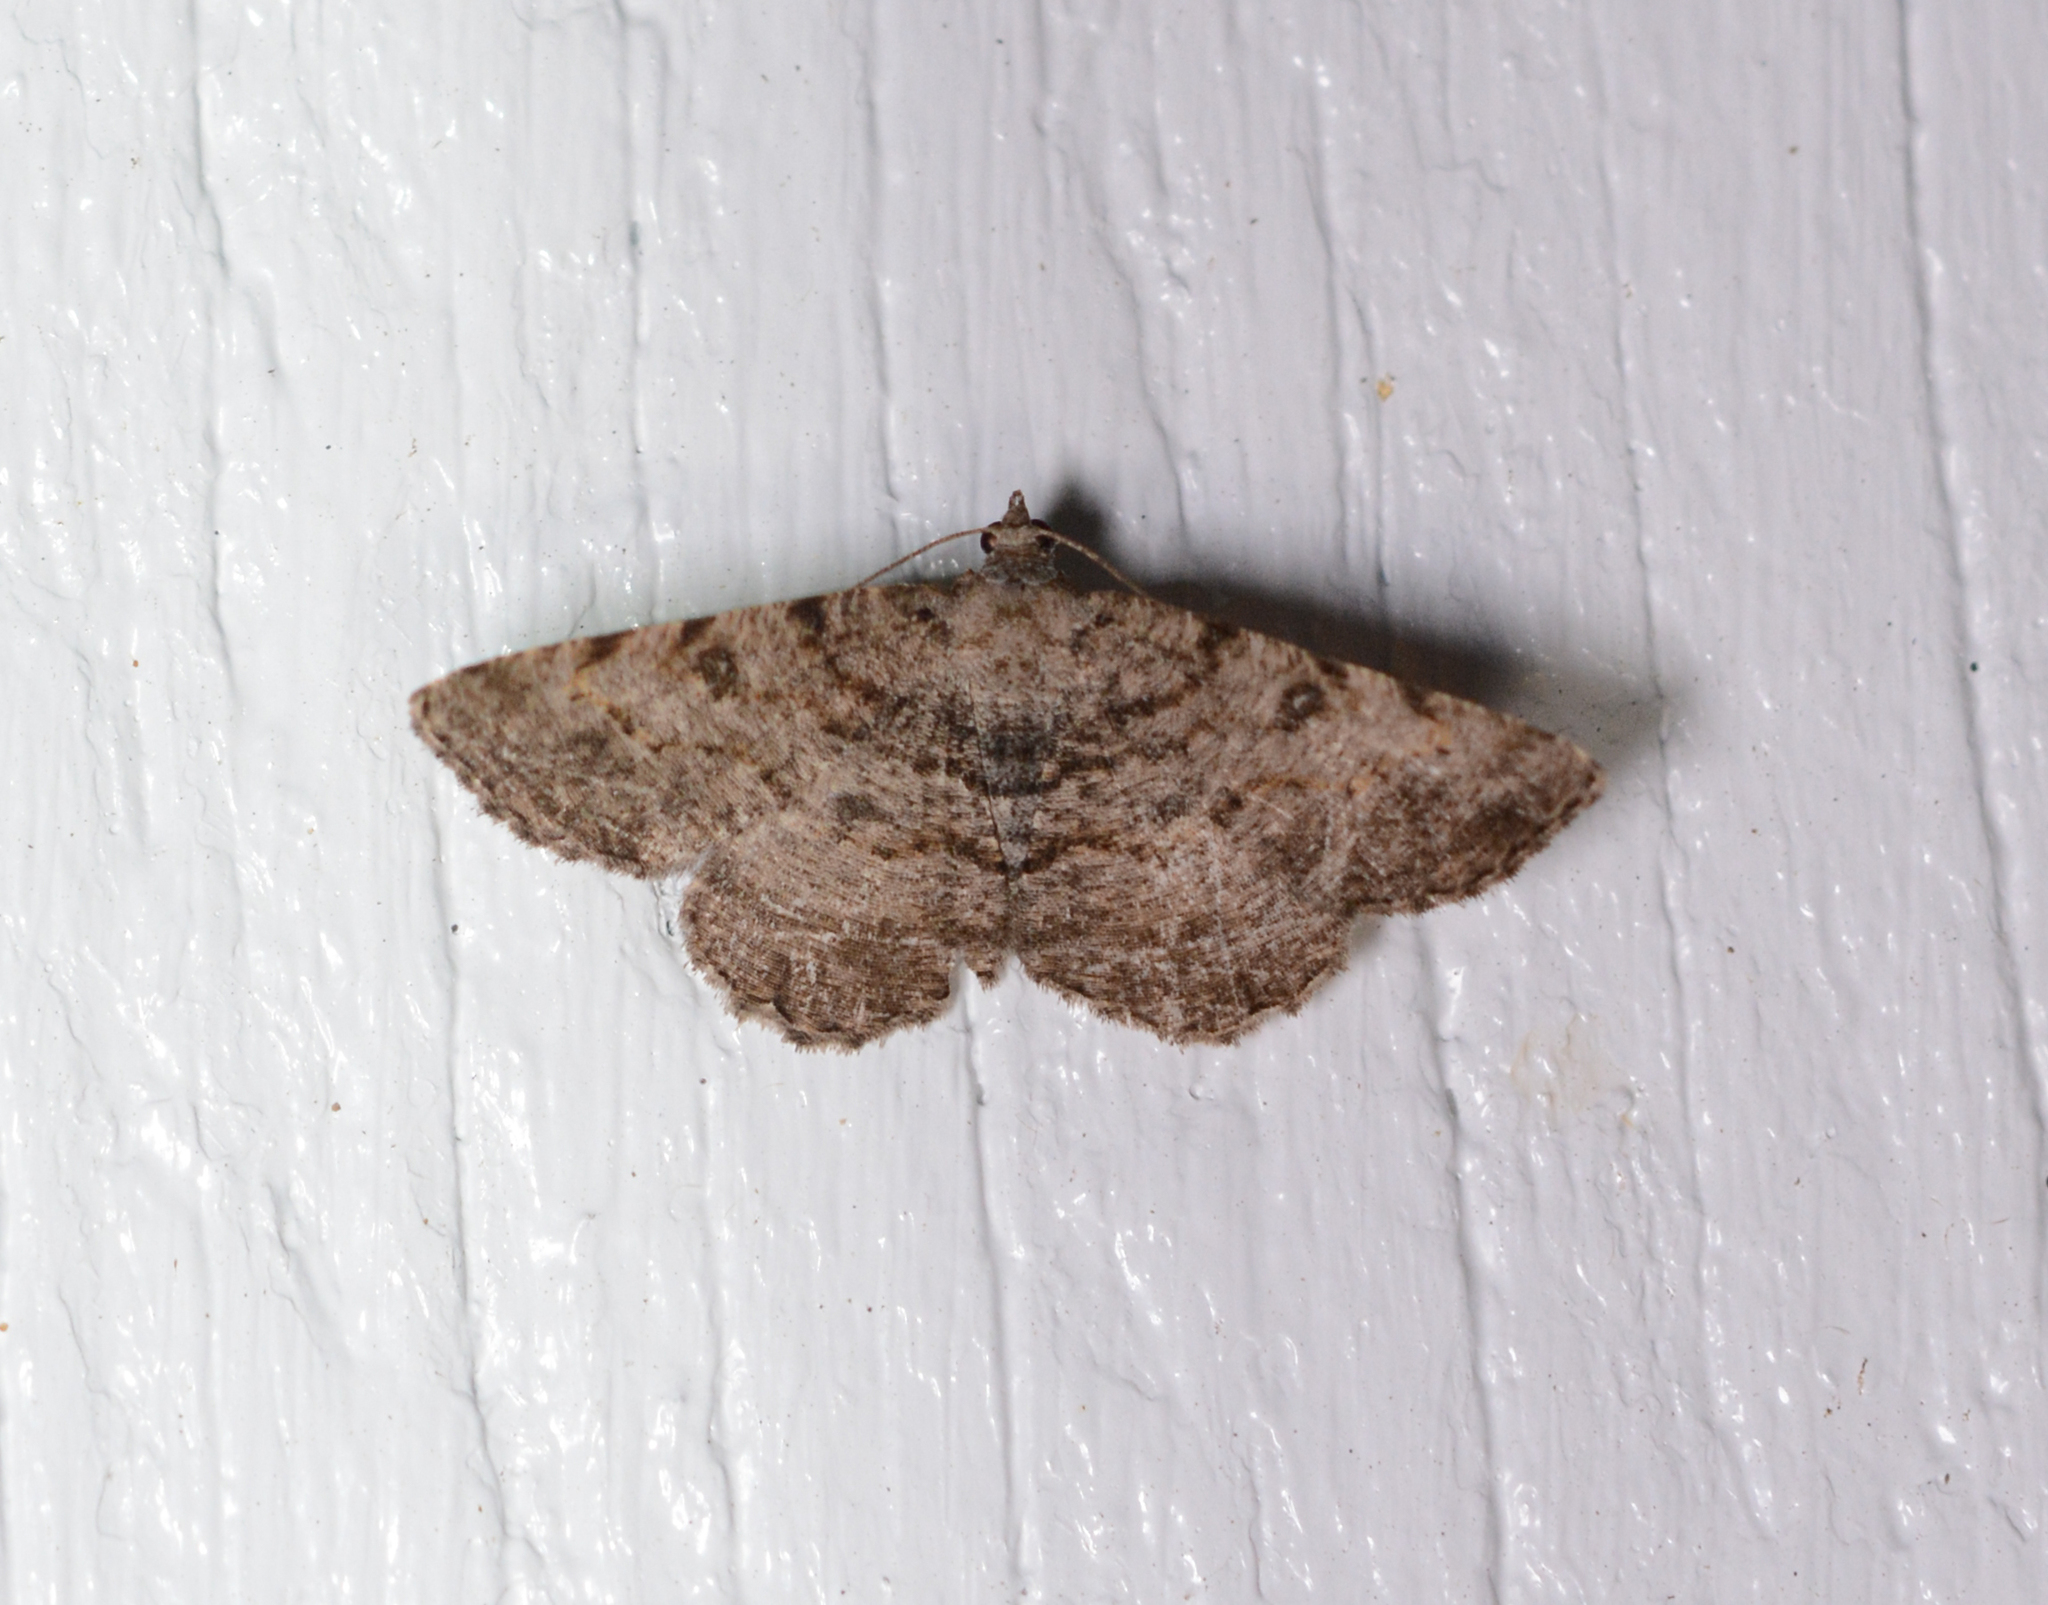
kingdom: Animalia
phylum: Arthropoda
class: Insecta
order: Lepidoptera
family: Geometridae
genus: Digrammia
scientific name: Digrammia gnophosaria
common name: Hollow-spotted angle
